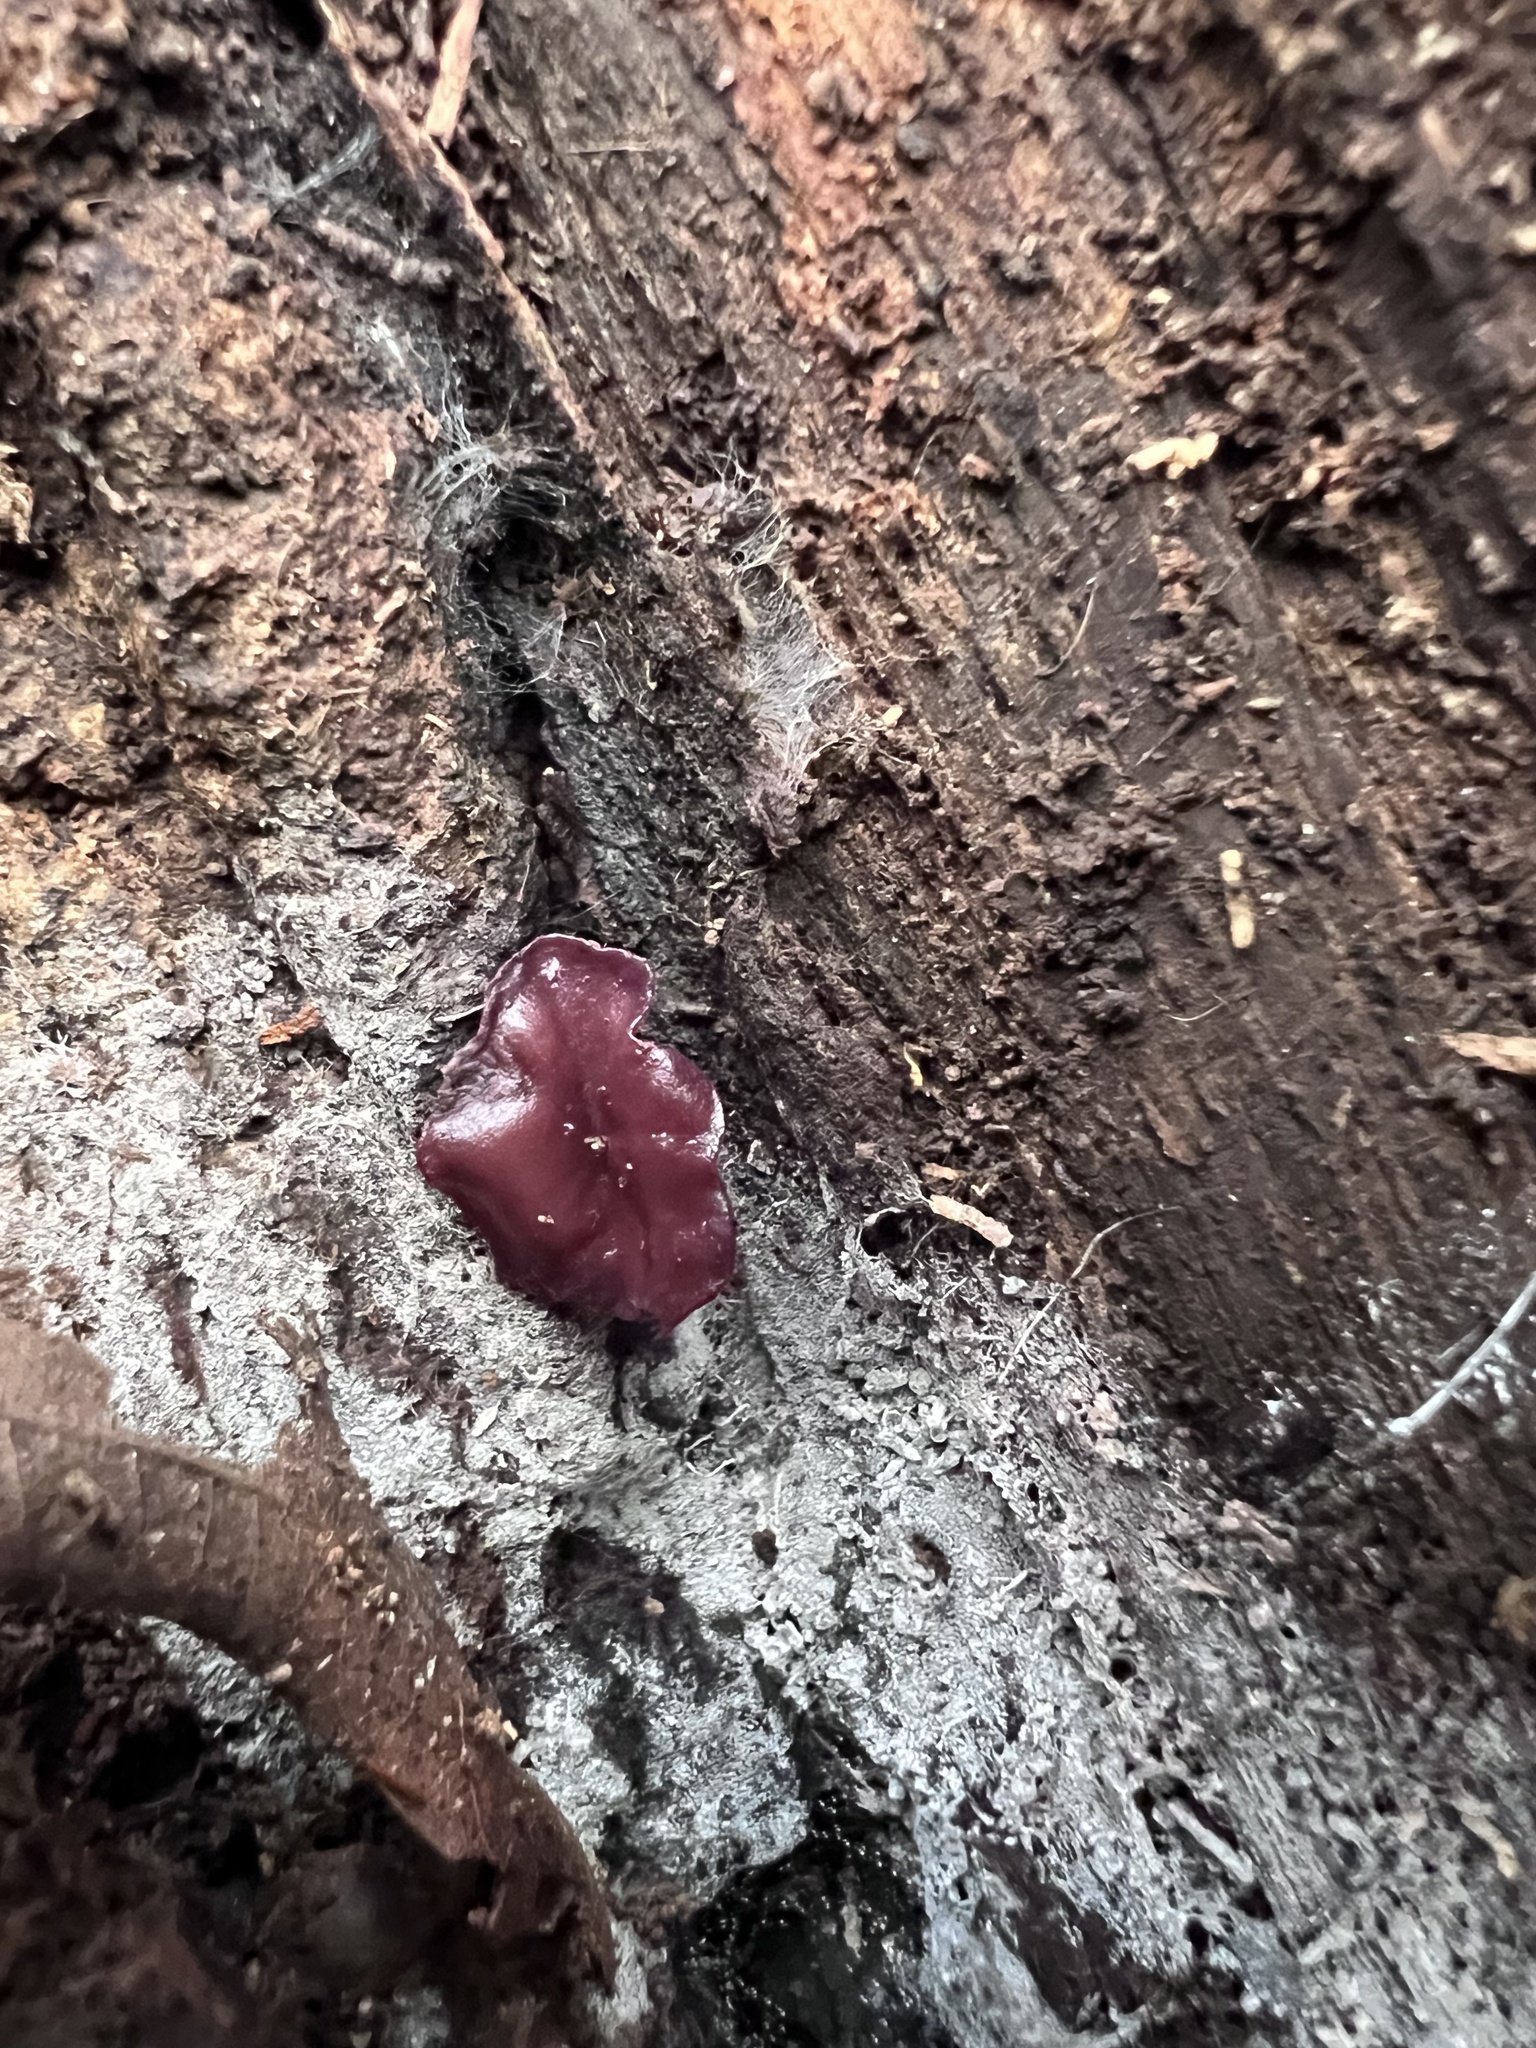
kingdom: Fungi
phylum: Ascomycota
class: Leotiomycetes
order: Helotiales
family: Gelatinodiscaceae
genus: Ascocoryne
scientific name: Ascocoryne sarcoides
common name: Purple jellydisc
